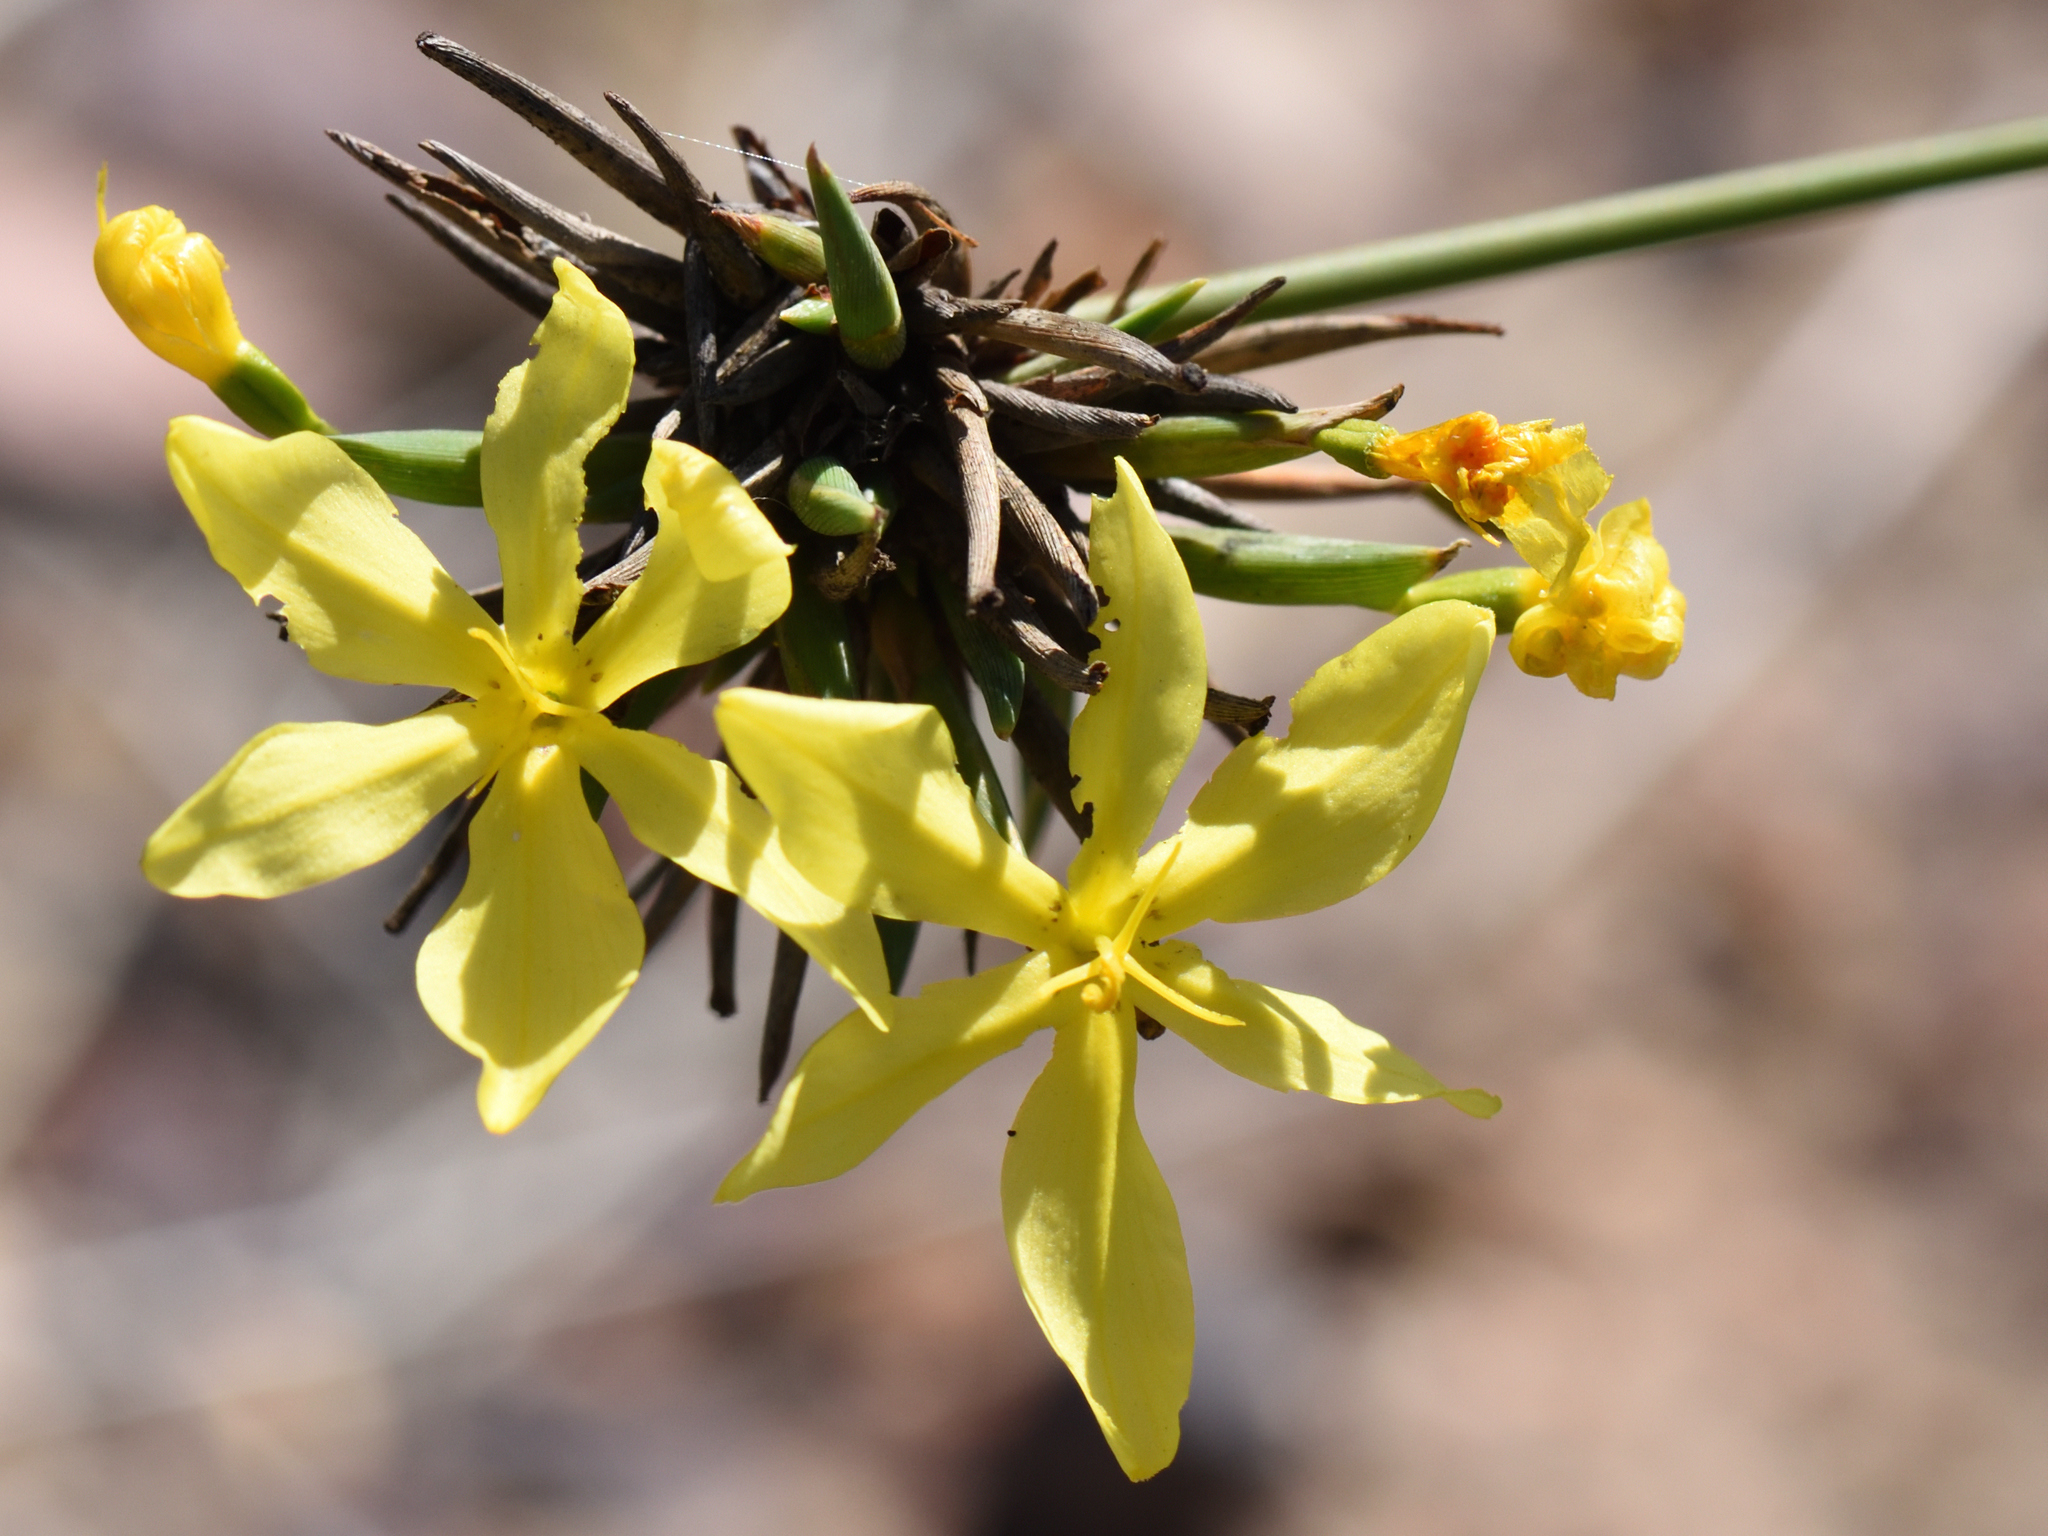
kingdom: Plantae
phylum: Tracheophyta
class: Liliopsida
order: Asparagales
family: Iridaceae
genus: Bobartia
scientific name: Bobartia orientalis
